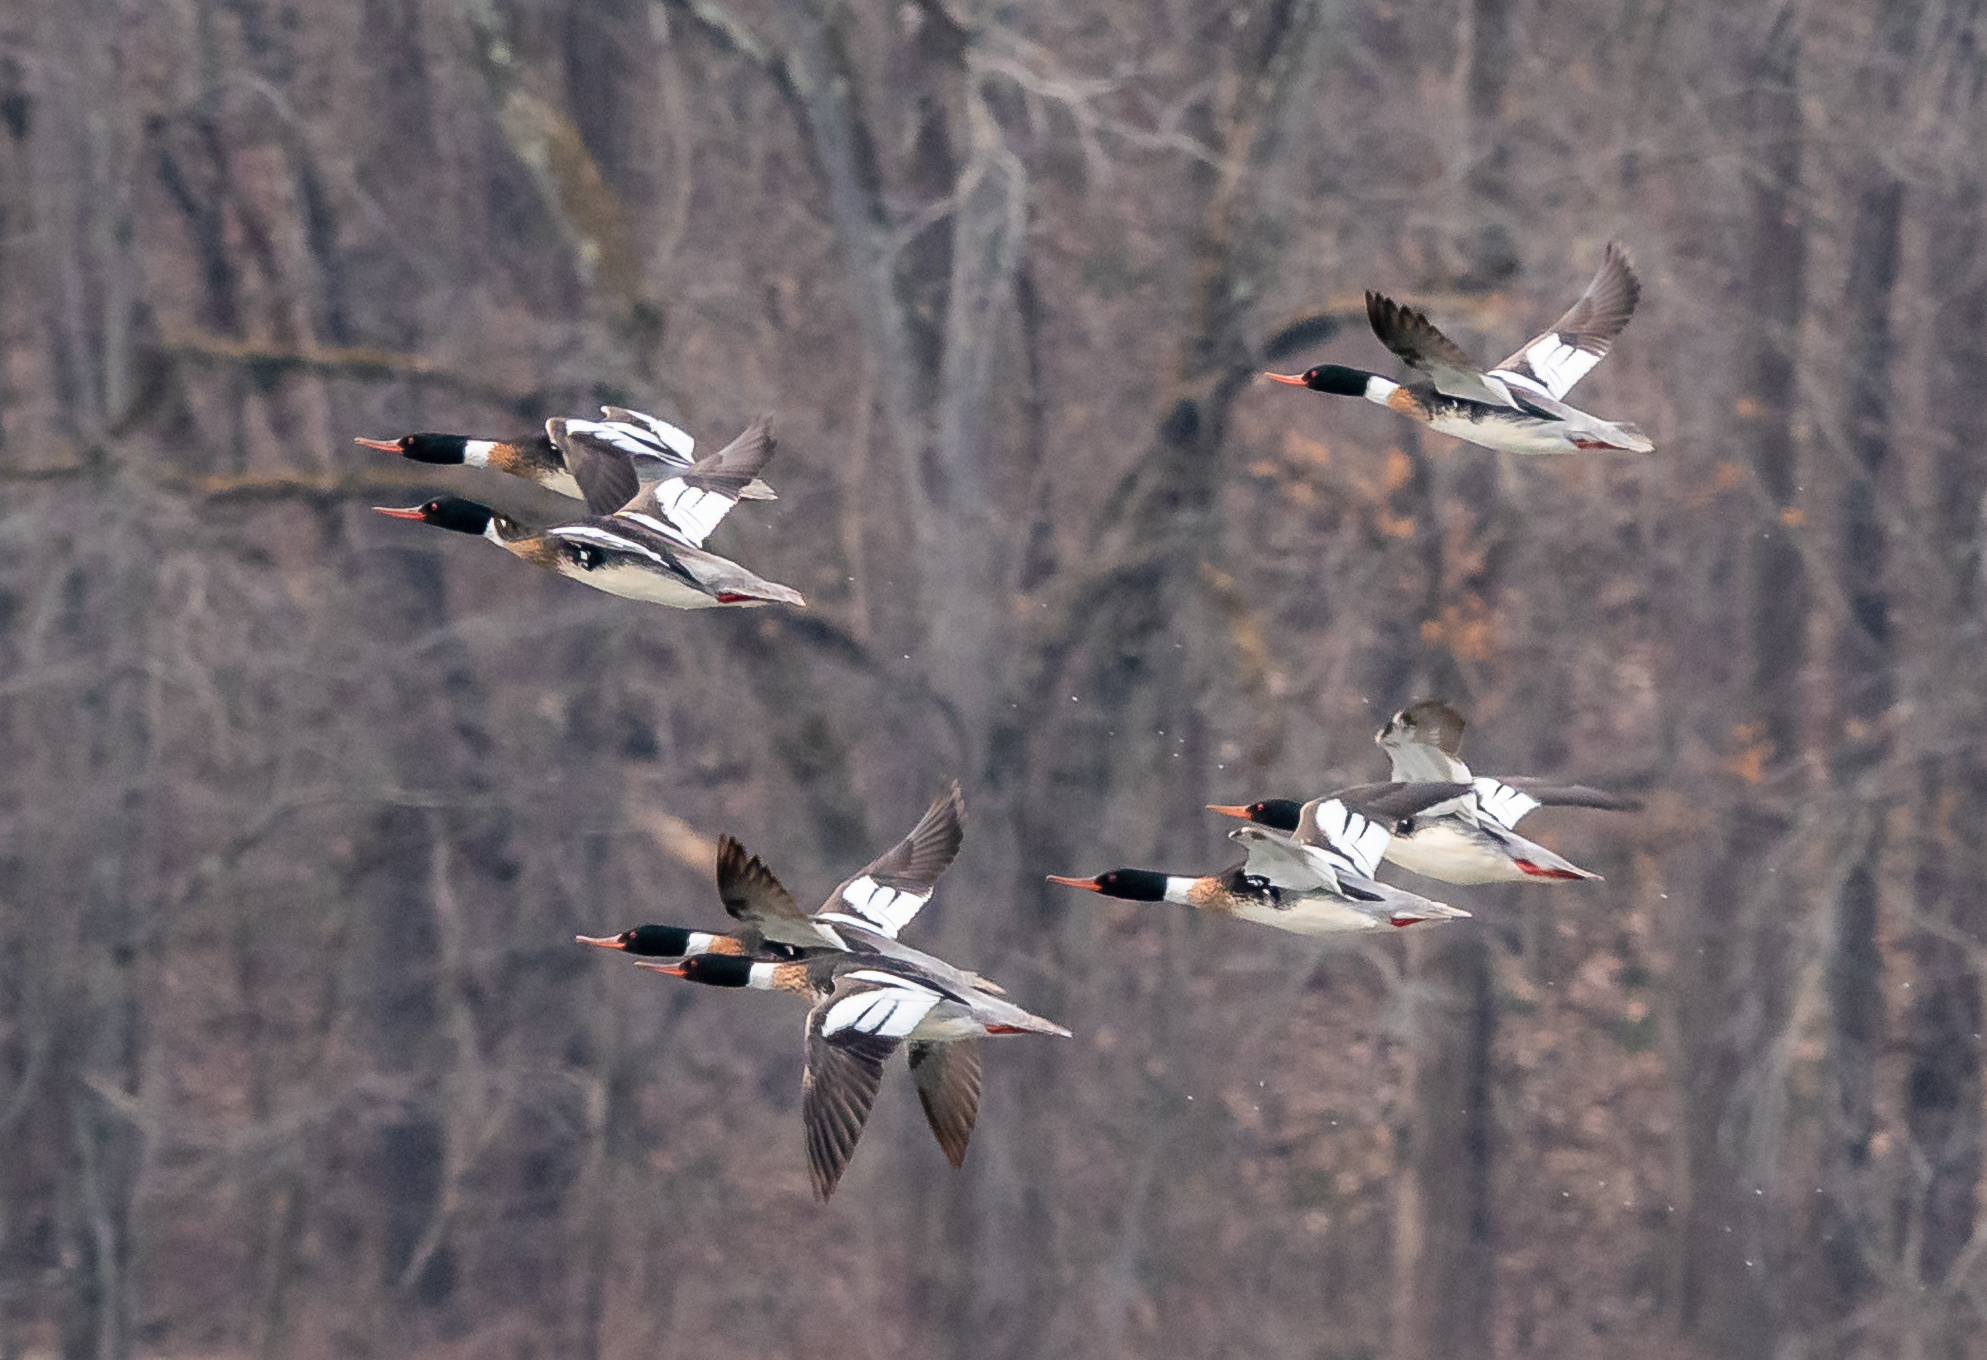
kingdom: Animalia
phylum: Chordata
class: Aves
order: Anseriformes
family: Anatidae
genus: Mergus
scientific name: Mergus serrator
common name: Red-breasted merganser
